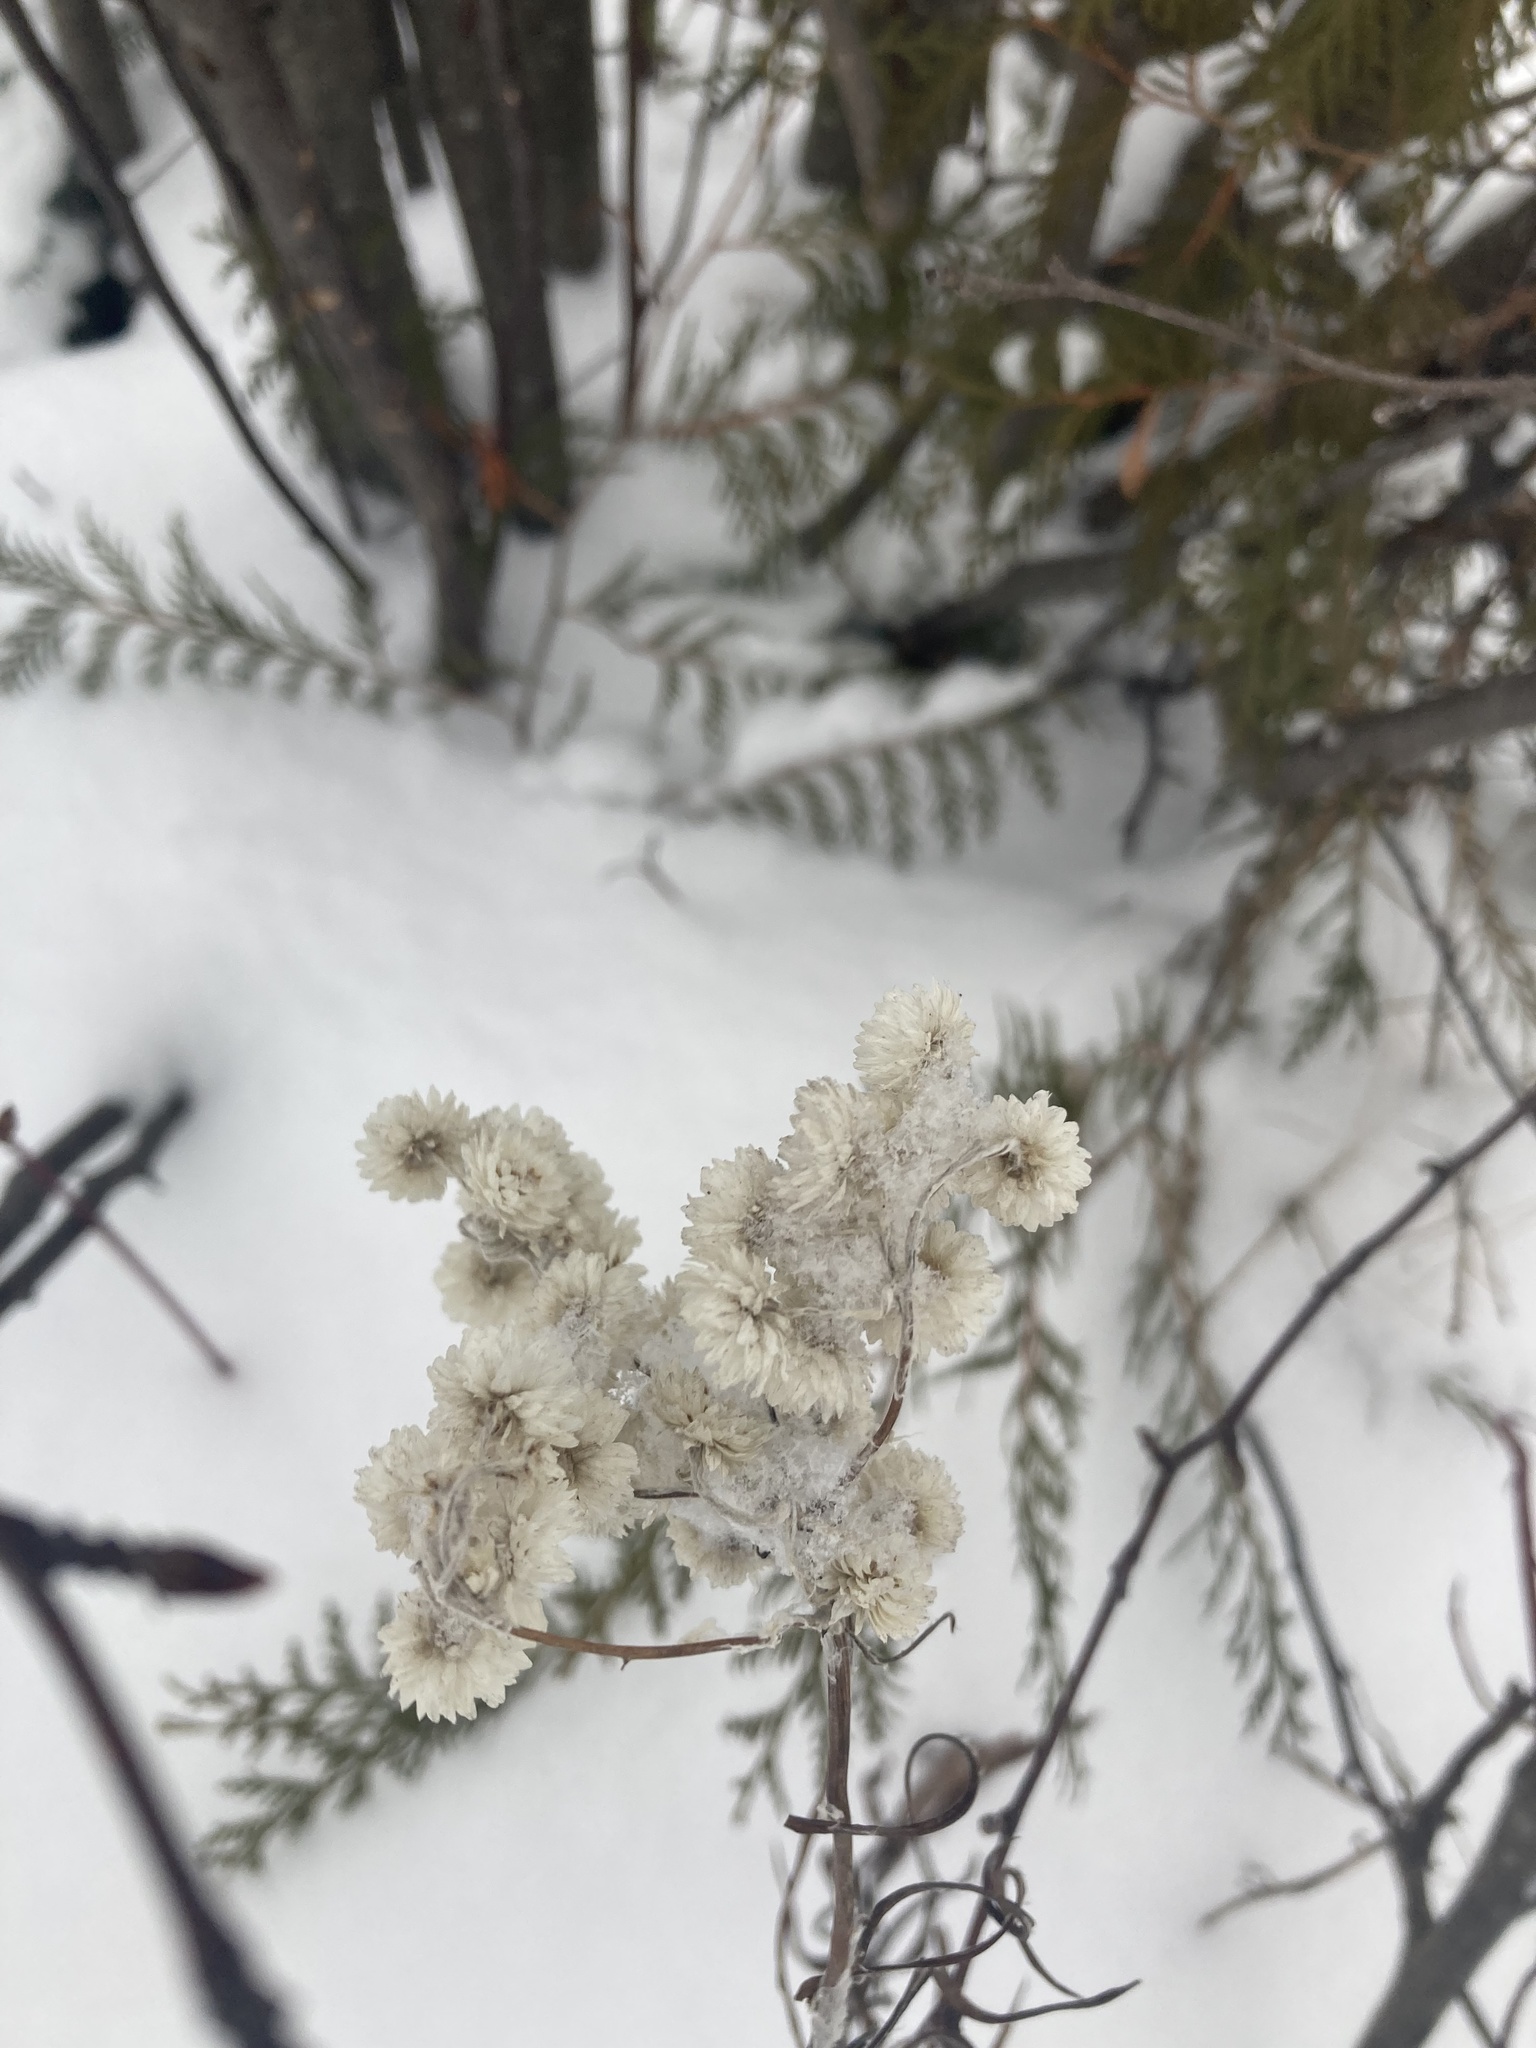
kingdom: Plantae
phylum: Tracheophyta
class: Magnoliopsida
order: Asterales
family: Asteraceae
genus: Anaphalis
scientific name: Anaphalis margaritacea
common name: Pearly everlasting
